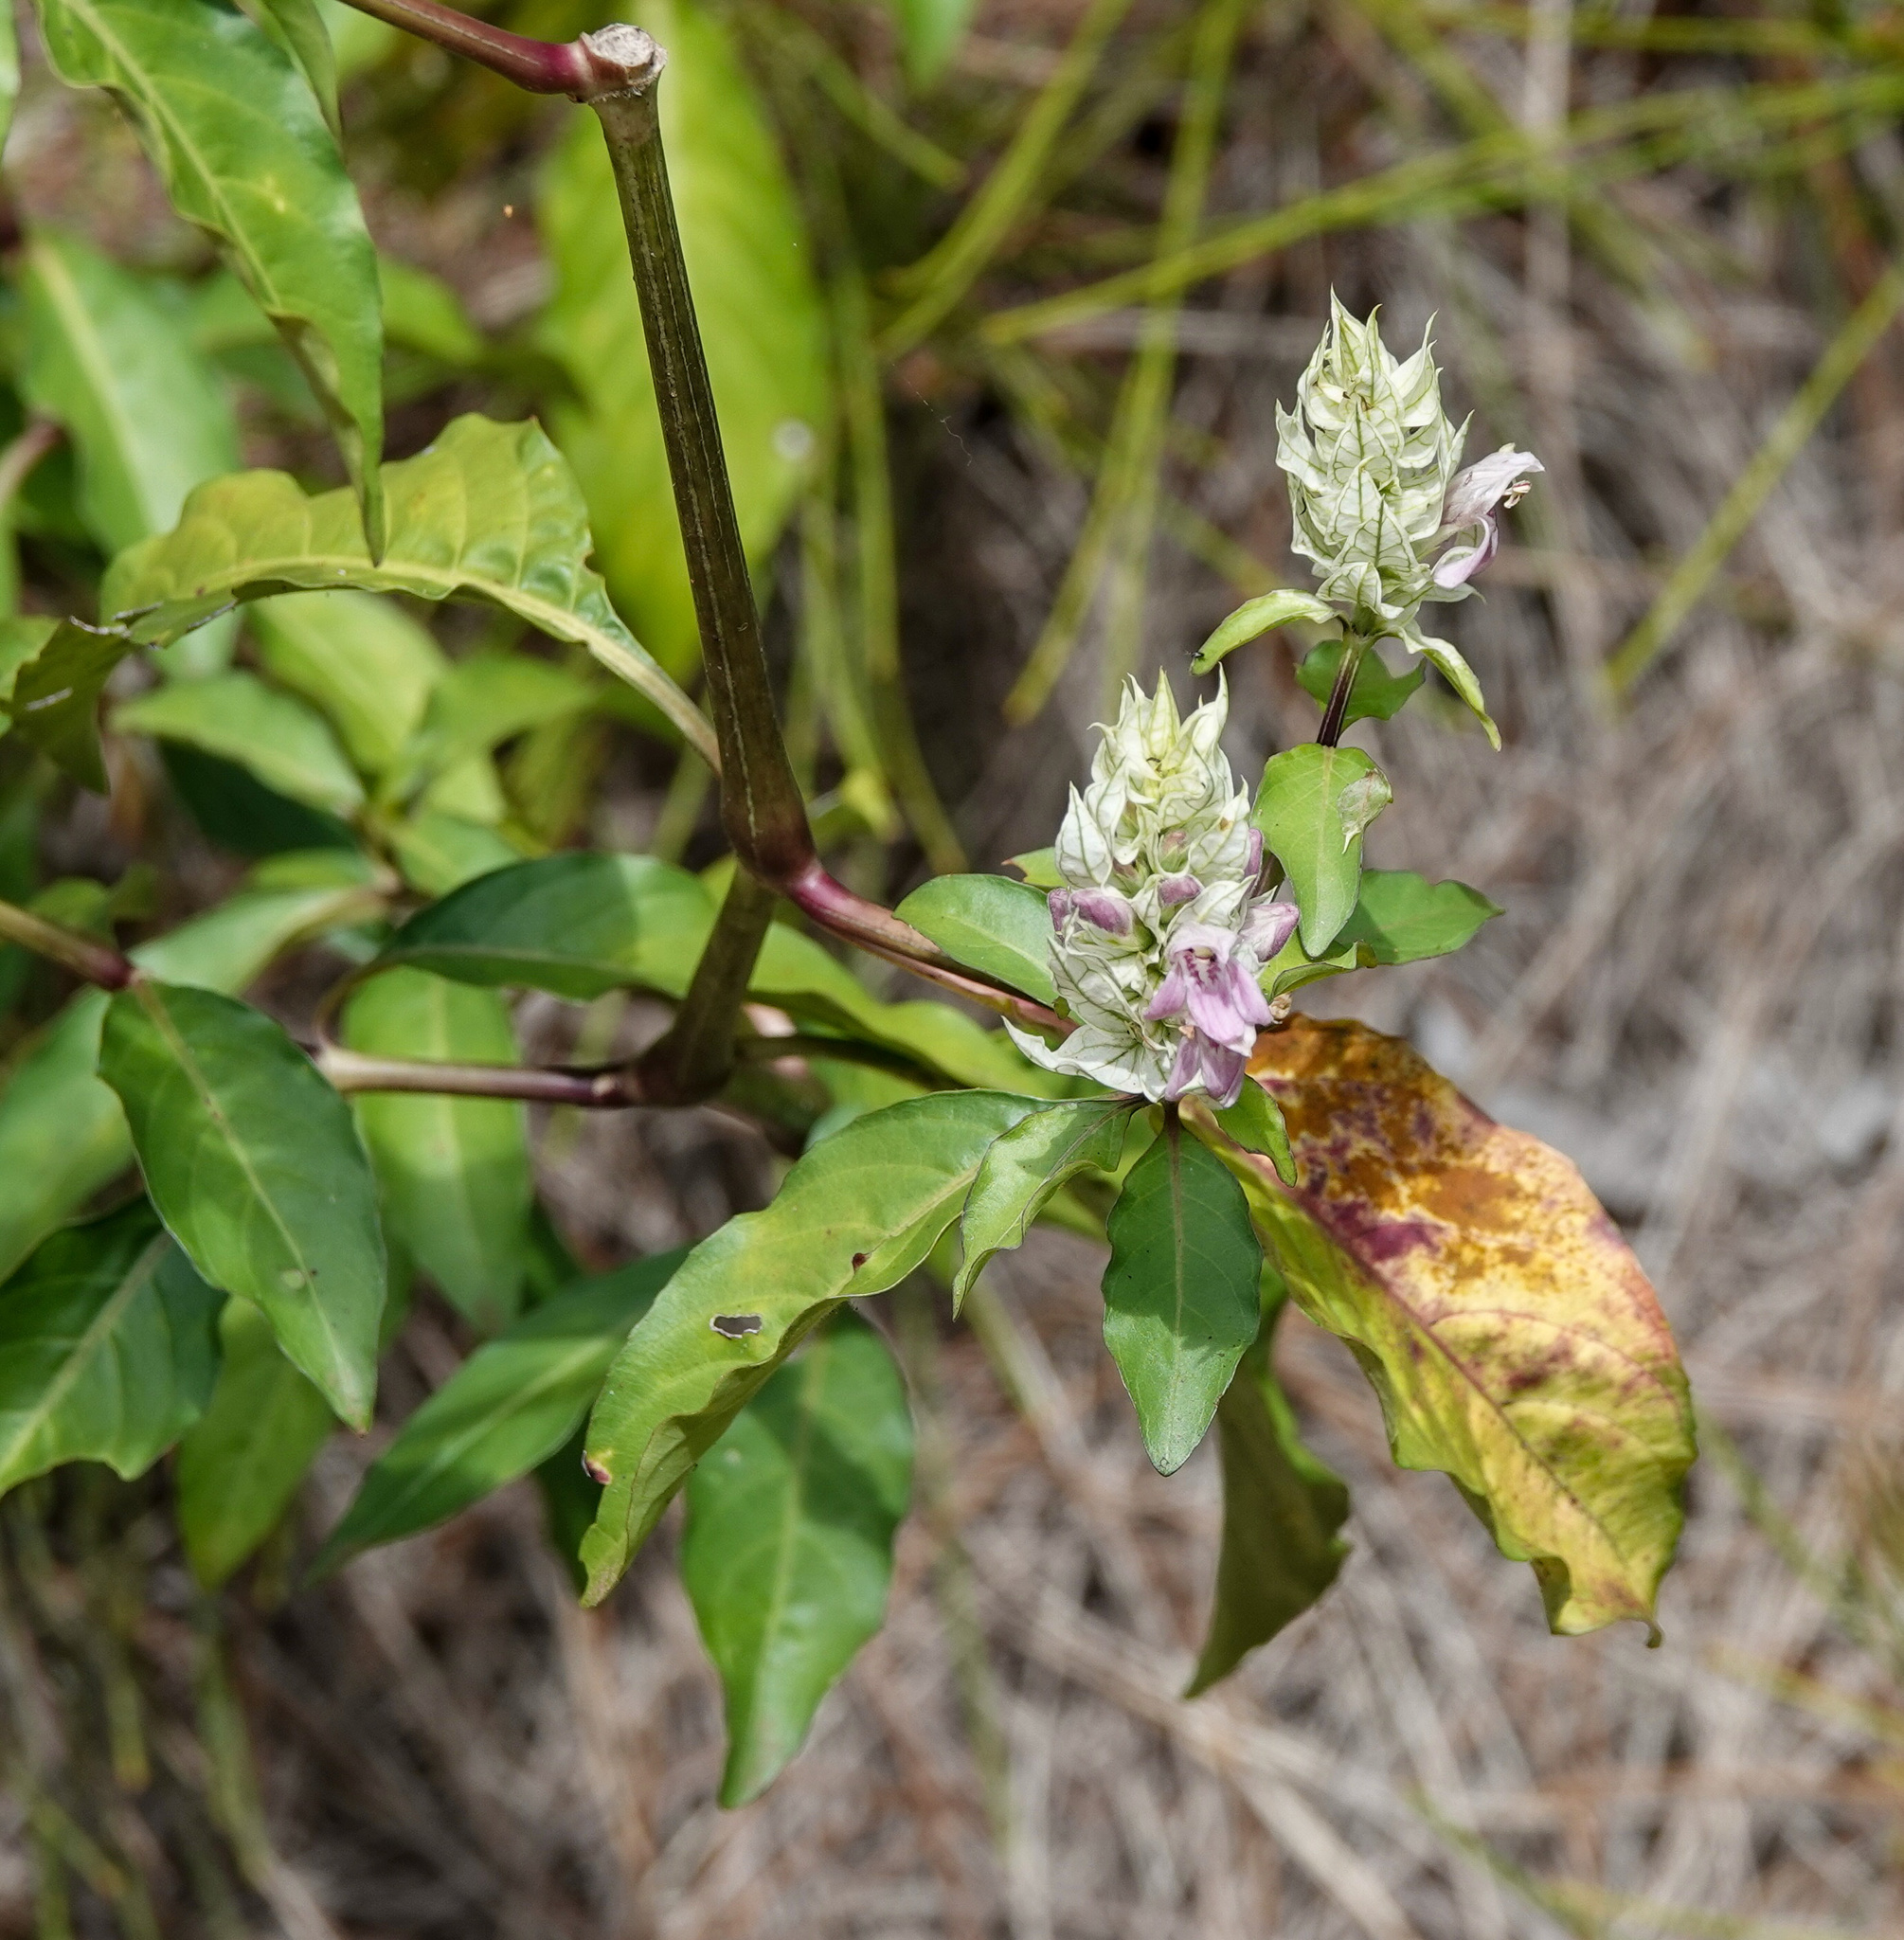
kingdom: Plantae
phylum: Tracheophyta
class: Magnoliopsida
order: Lamiales
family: Acanthaceae
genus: Justicia
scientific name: Justicia betonica
